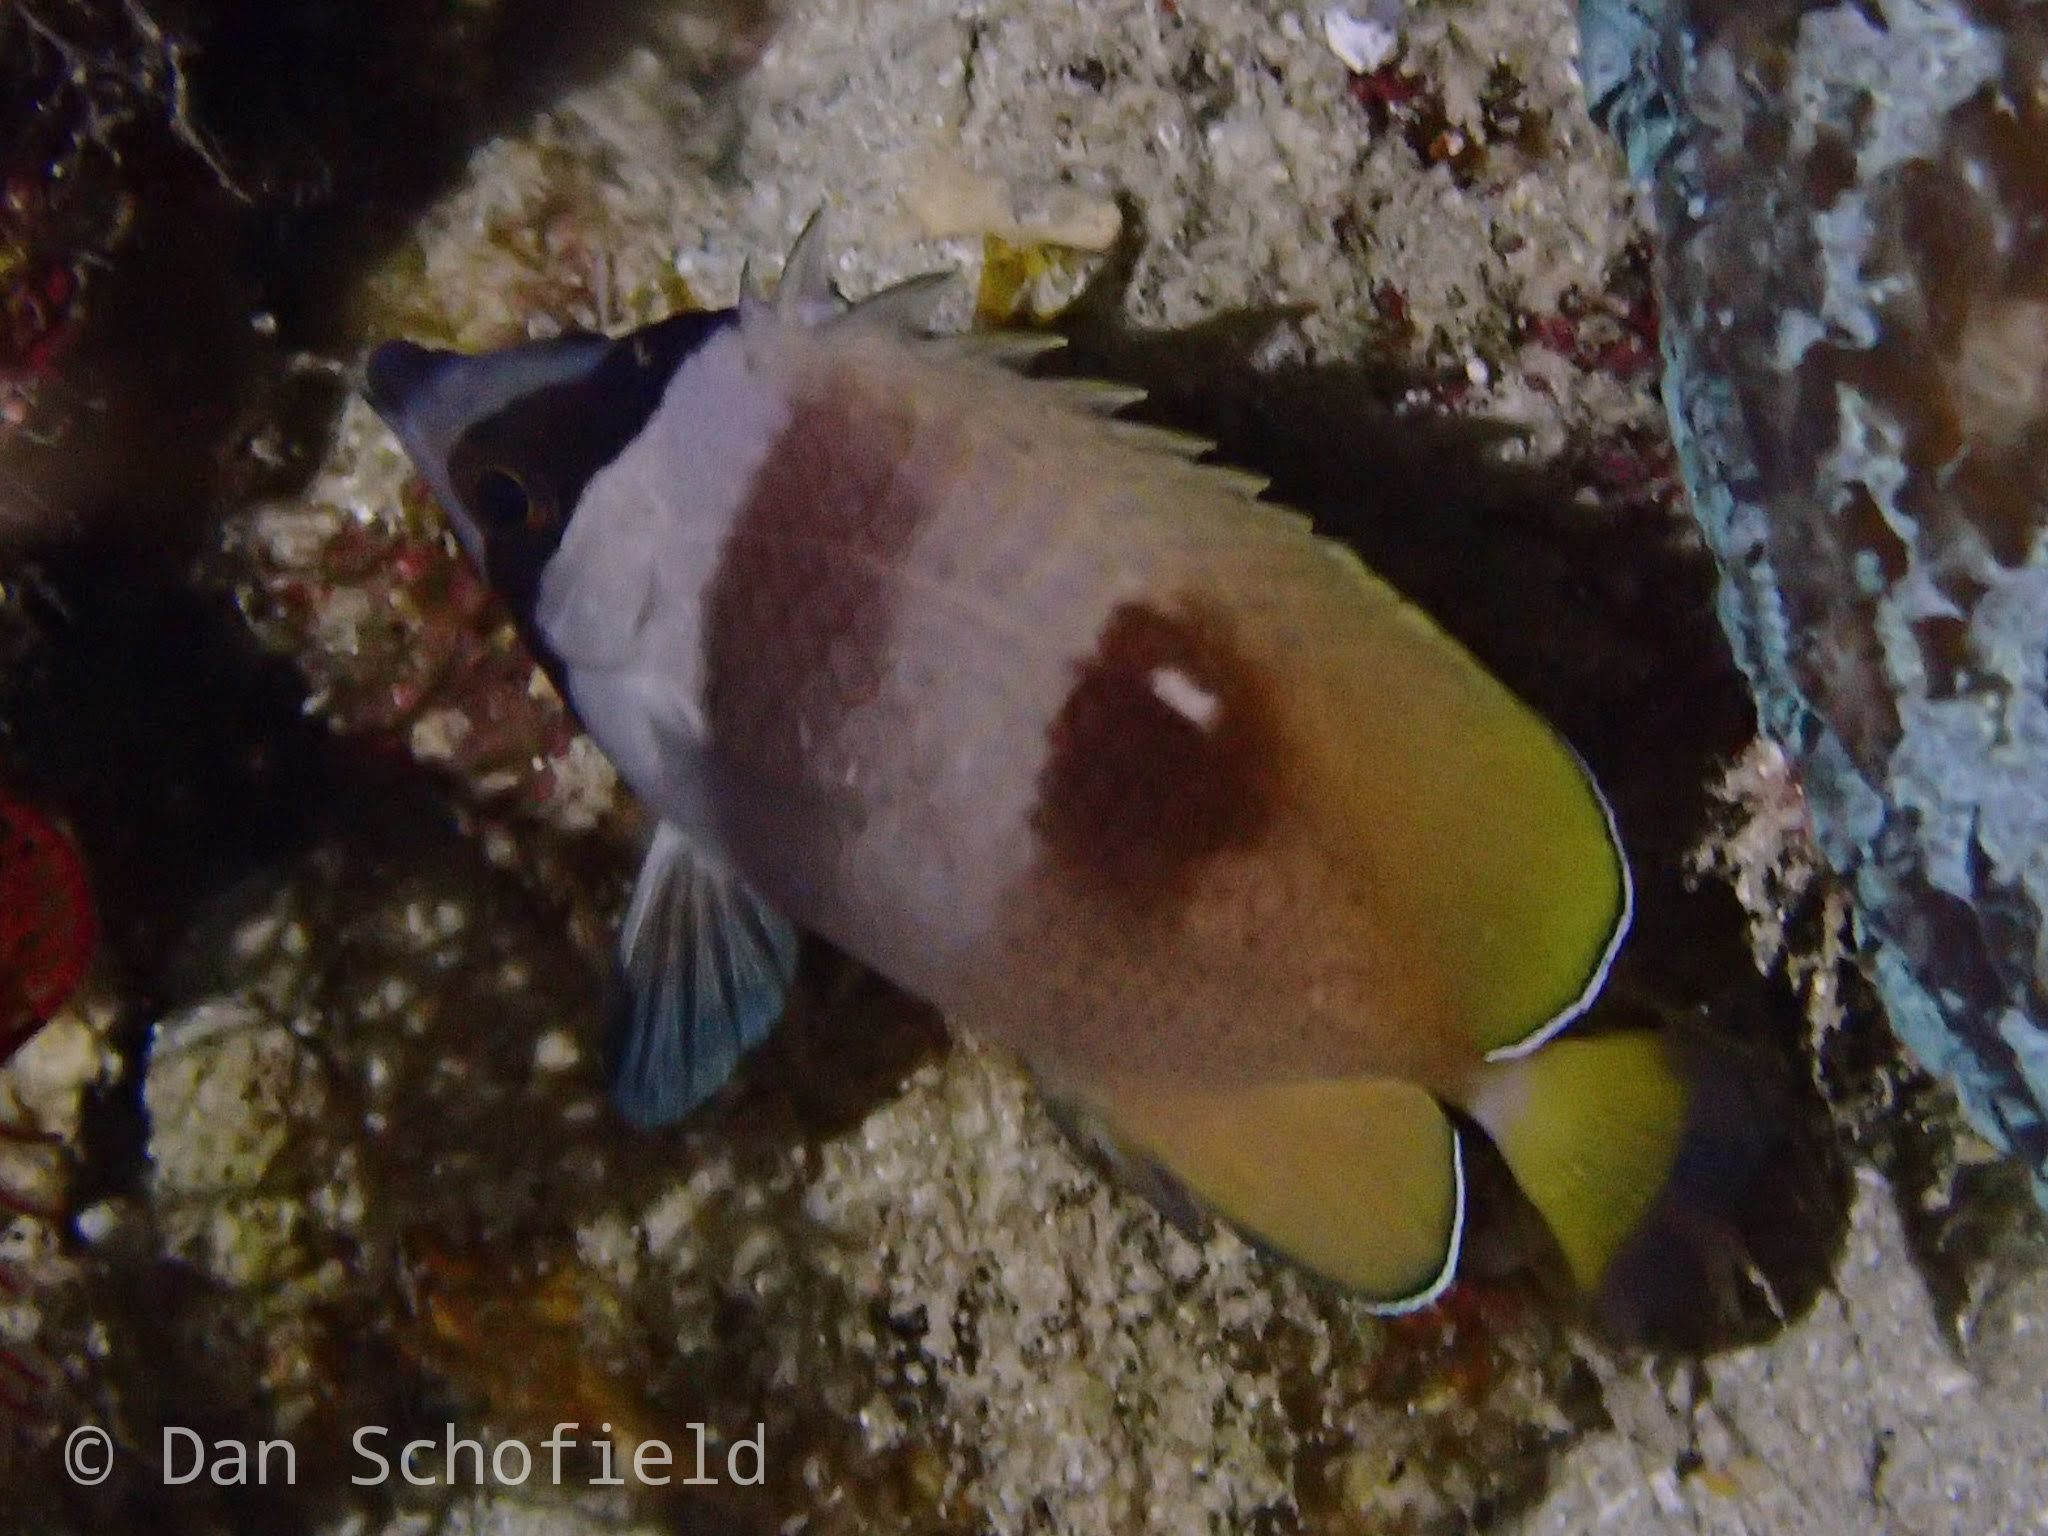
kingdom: Animalia
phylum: Chordata
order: Perciformes
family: Chaetodontidae
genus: Chaetodon
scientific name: Chaetodon kleinii
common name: Klein's butterflyfish
